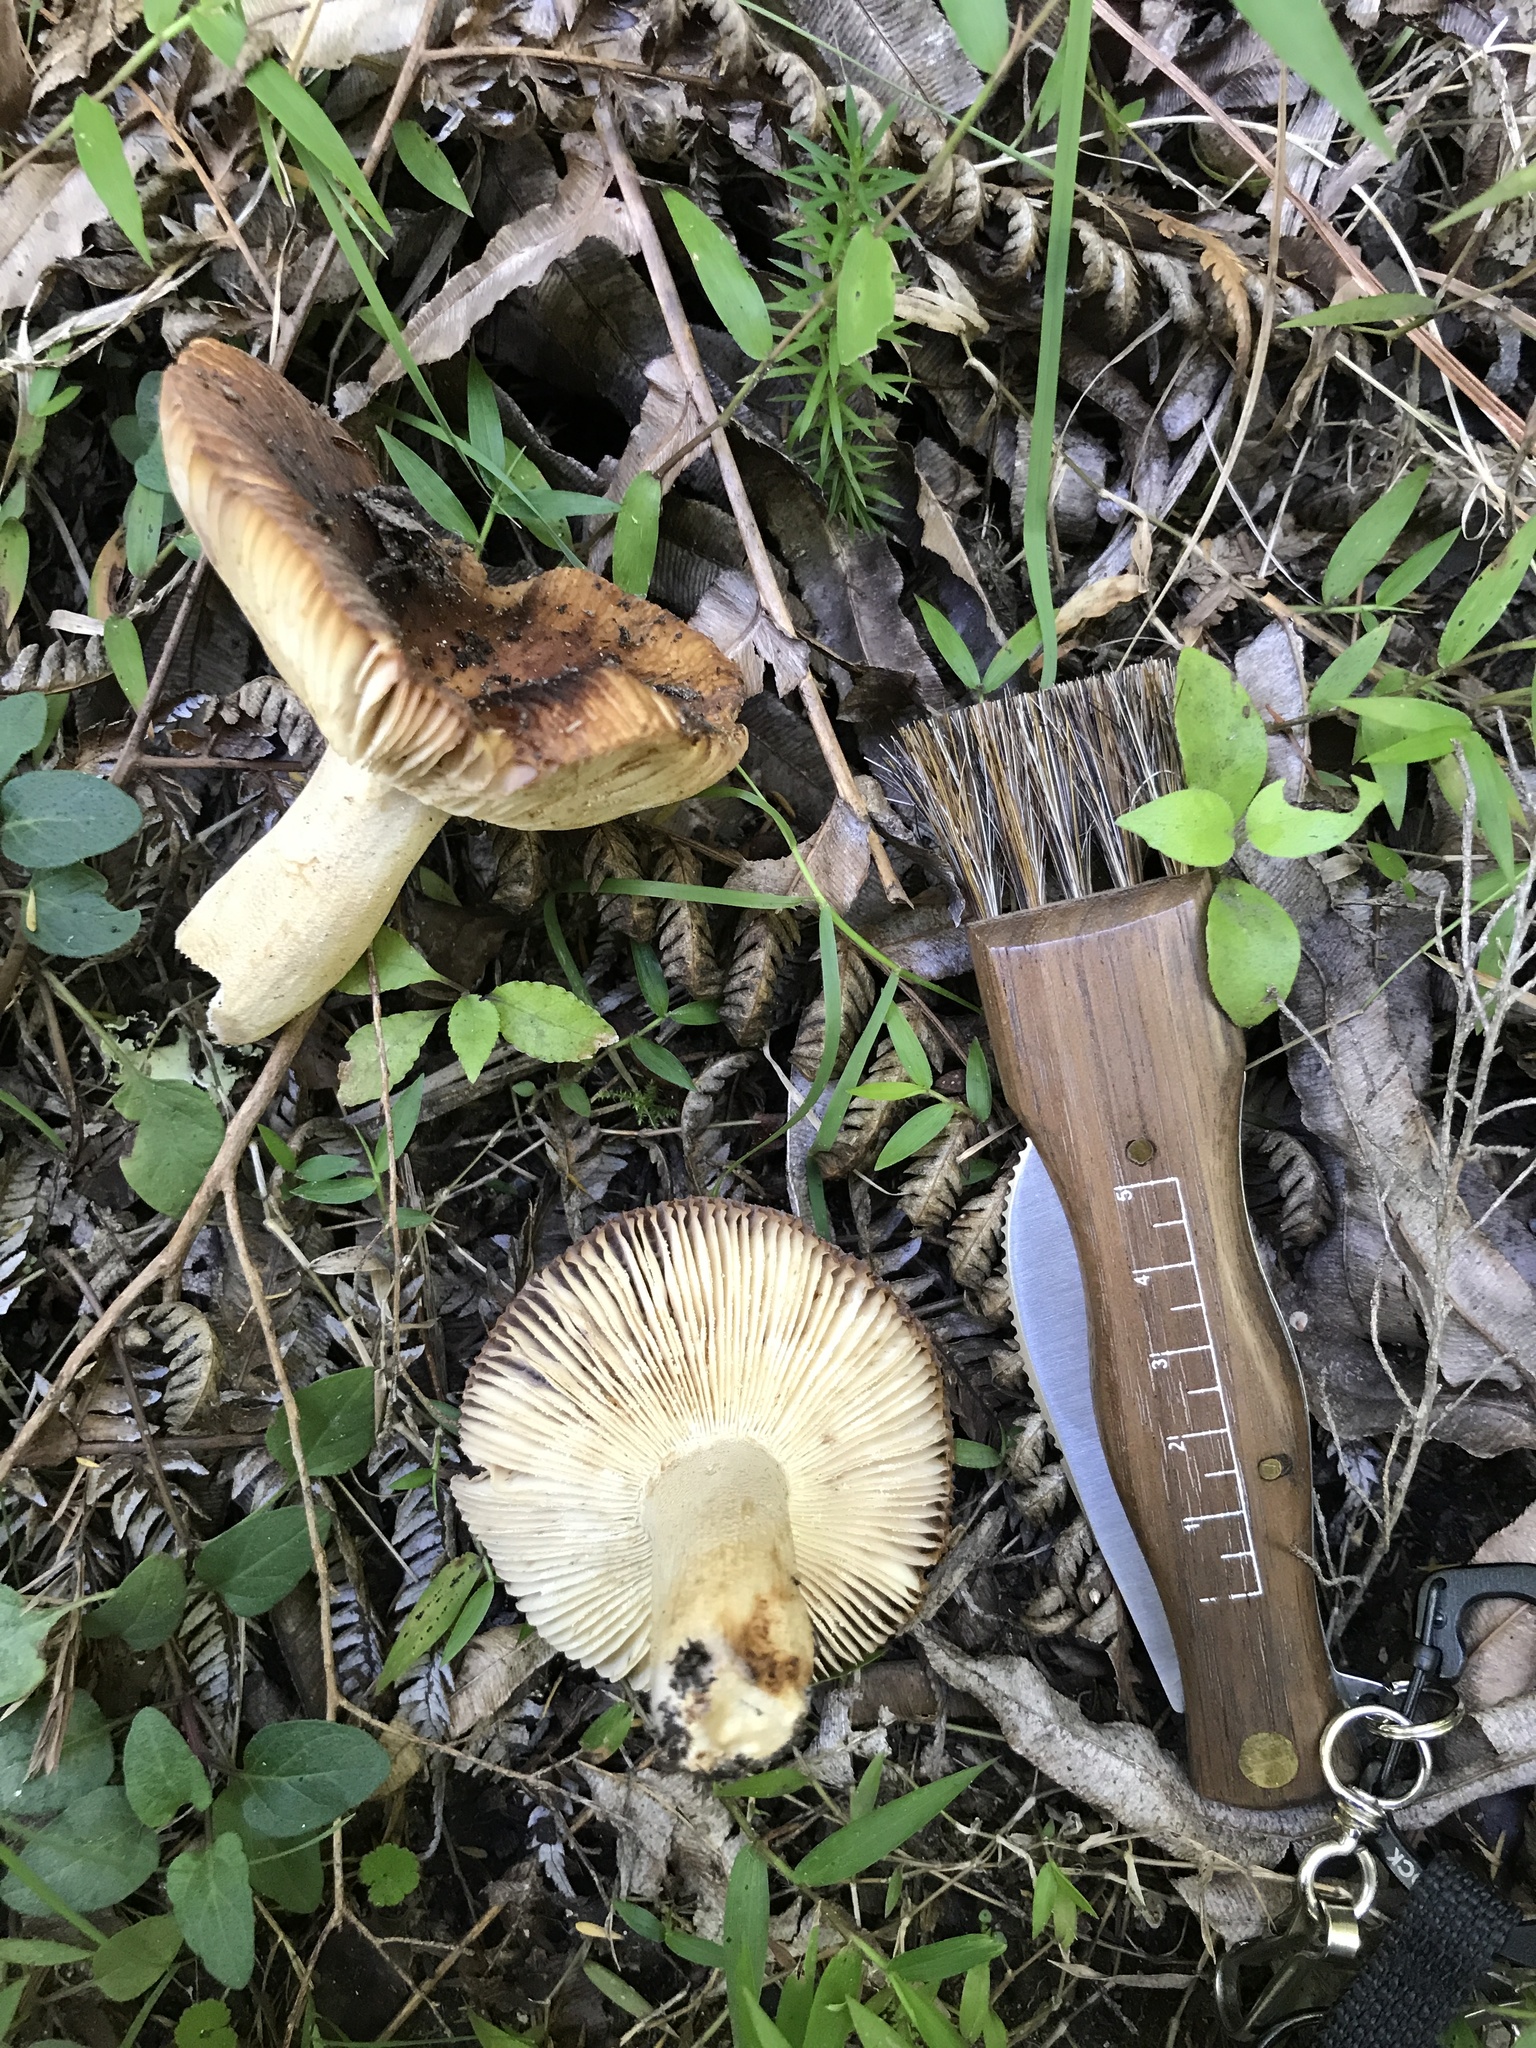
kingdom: Fungi
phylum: Basidiomycota
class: Agaricomycetes
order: Russulales
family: Russulaceae
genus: Russula
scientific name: Russula novae-zelandiae
